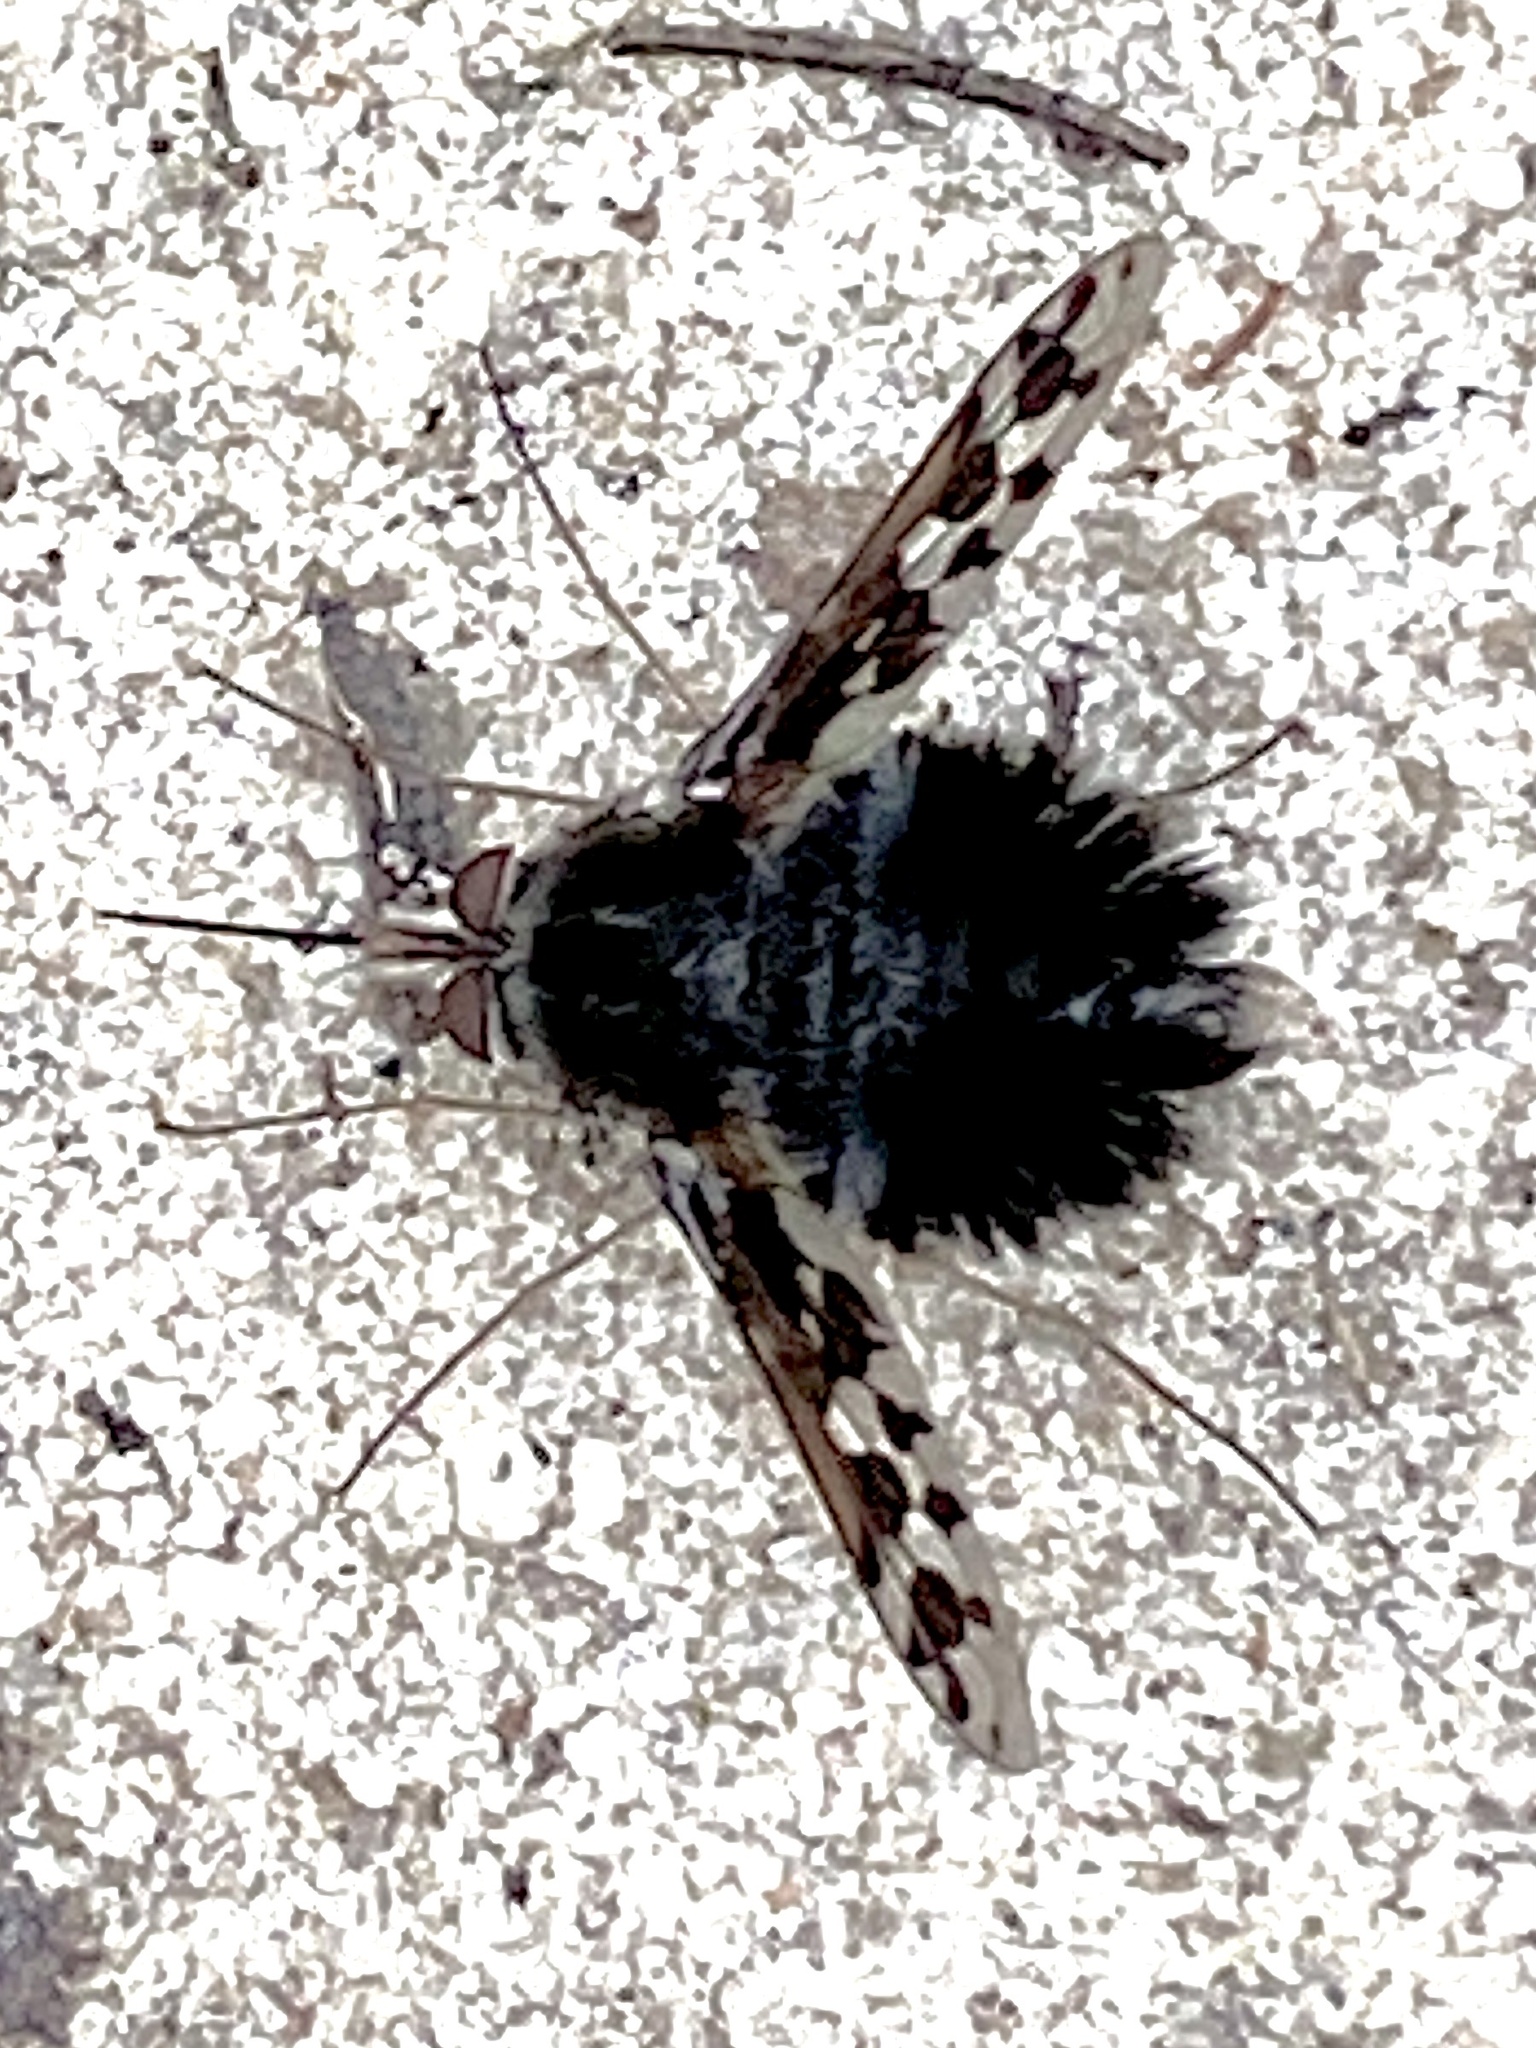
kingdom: Animalia
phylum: Arthropoda
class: Insecta
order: Diptera
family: Bombyliidae
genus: Australoechus
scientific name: Australoechus megaspilus
